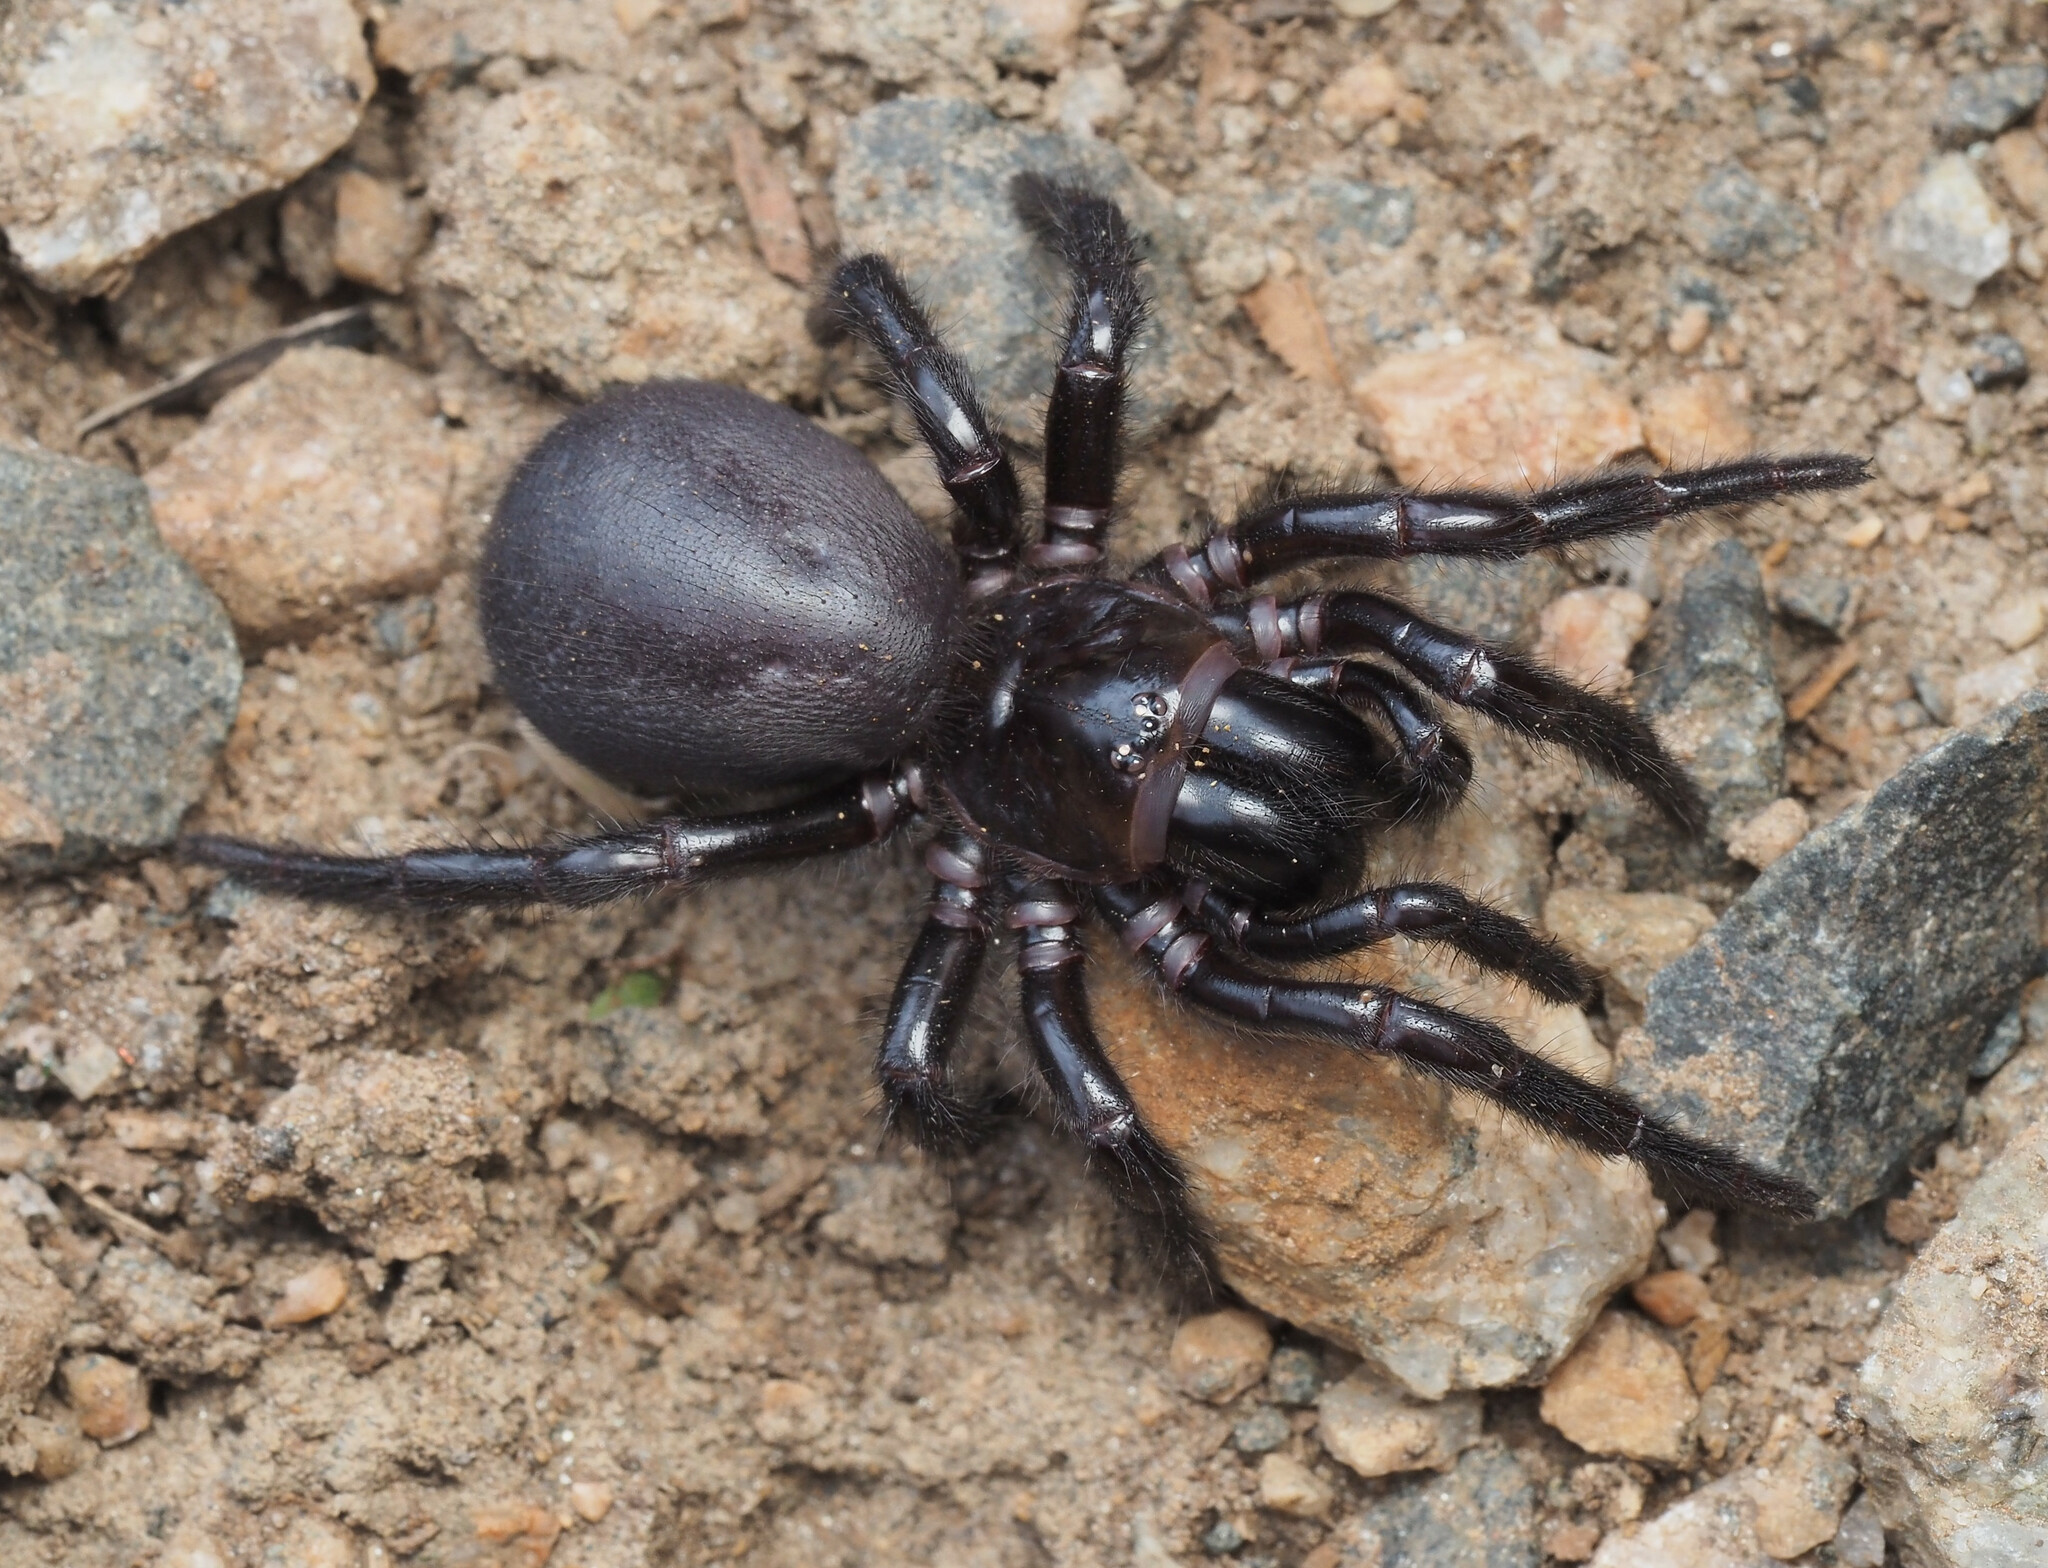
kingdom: Animalia
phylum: Arthropoda
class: Arachnida
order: Araneae
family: Atracidae
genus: Hadronyche
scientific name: Hadronyche infensa
